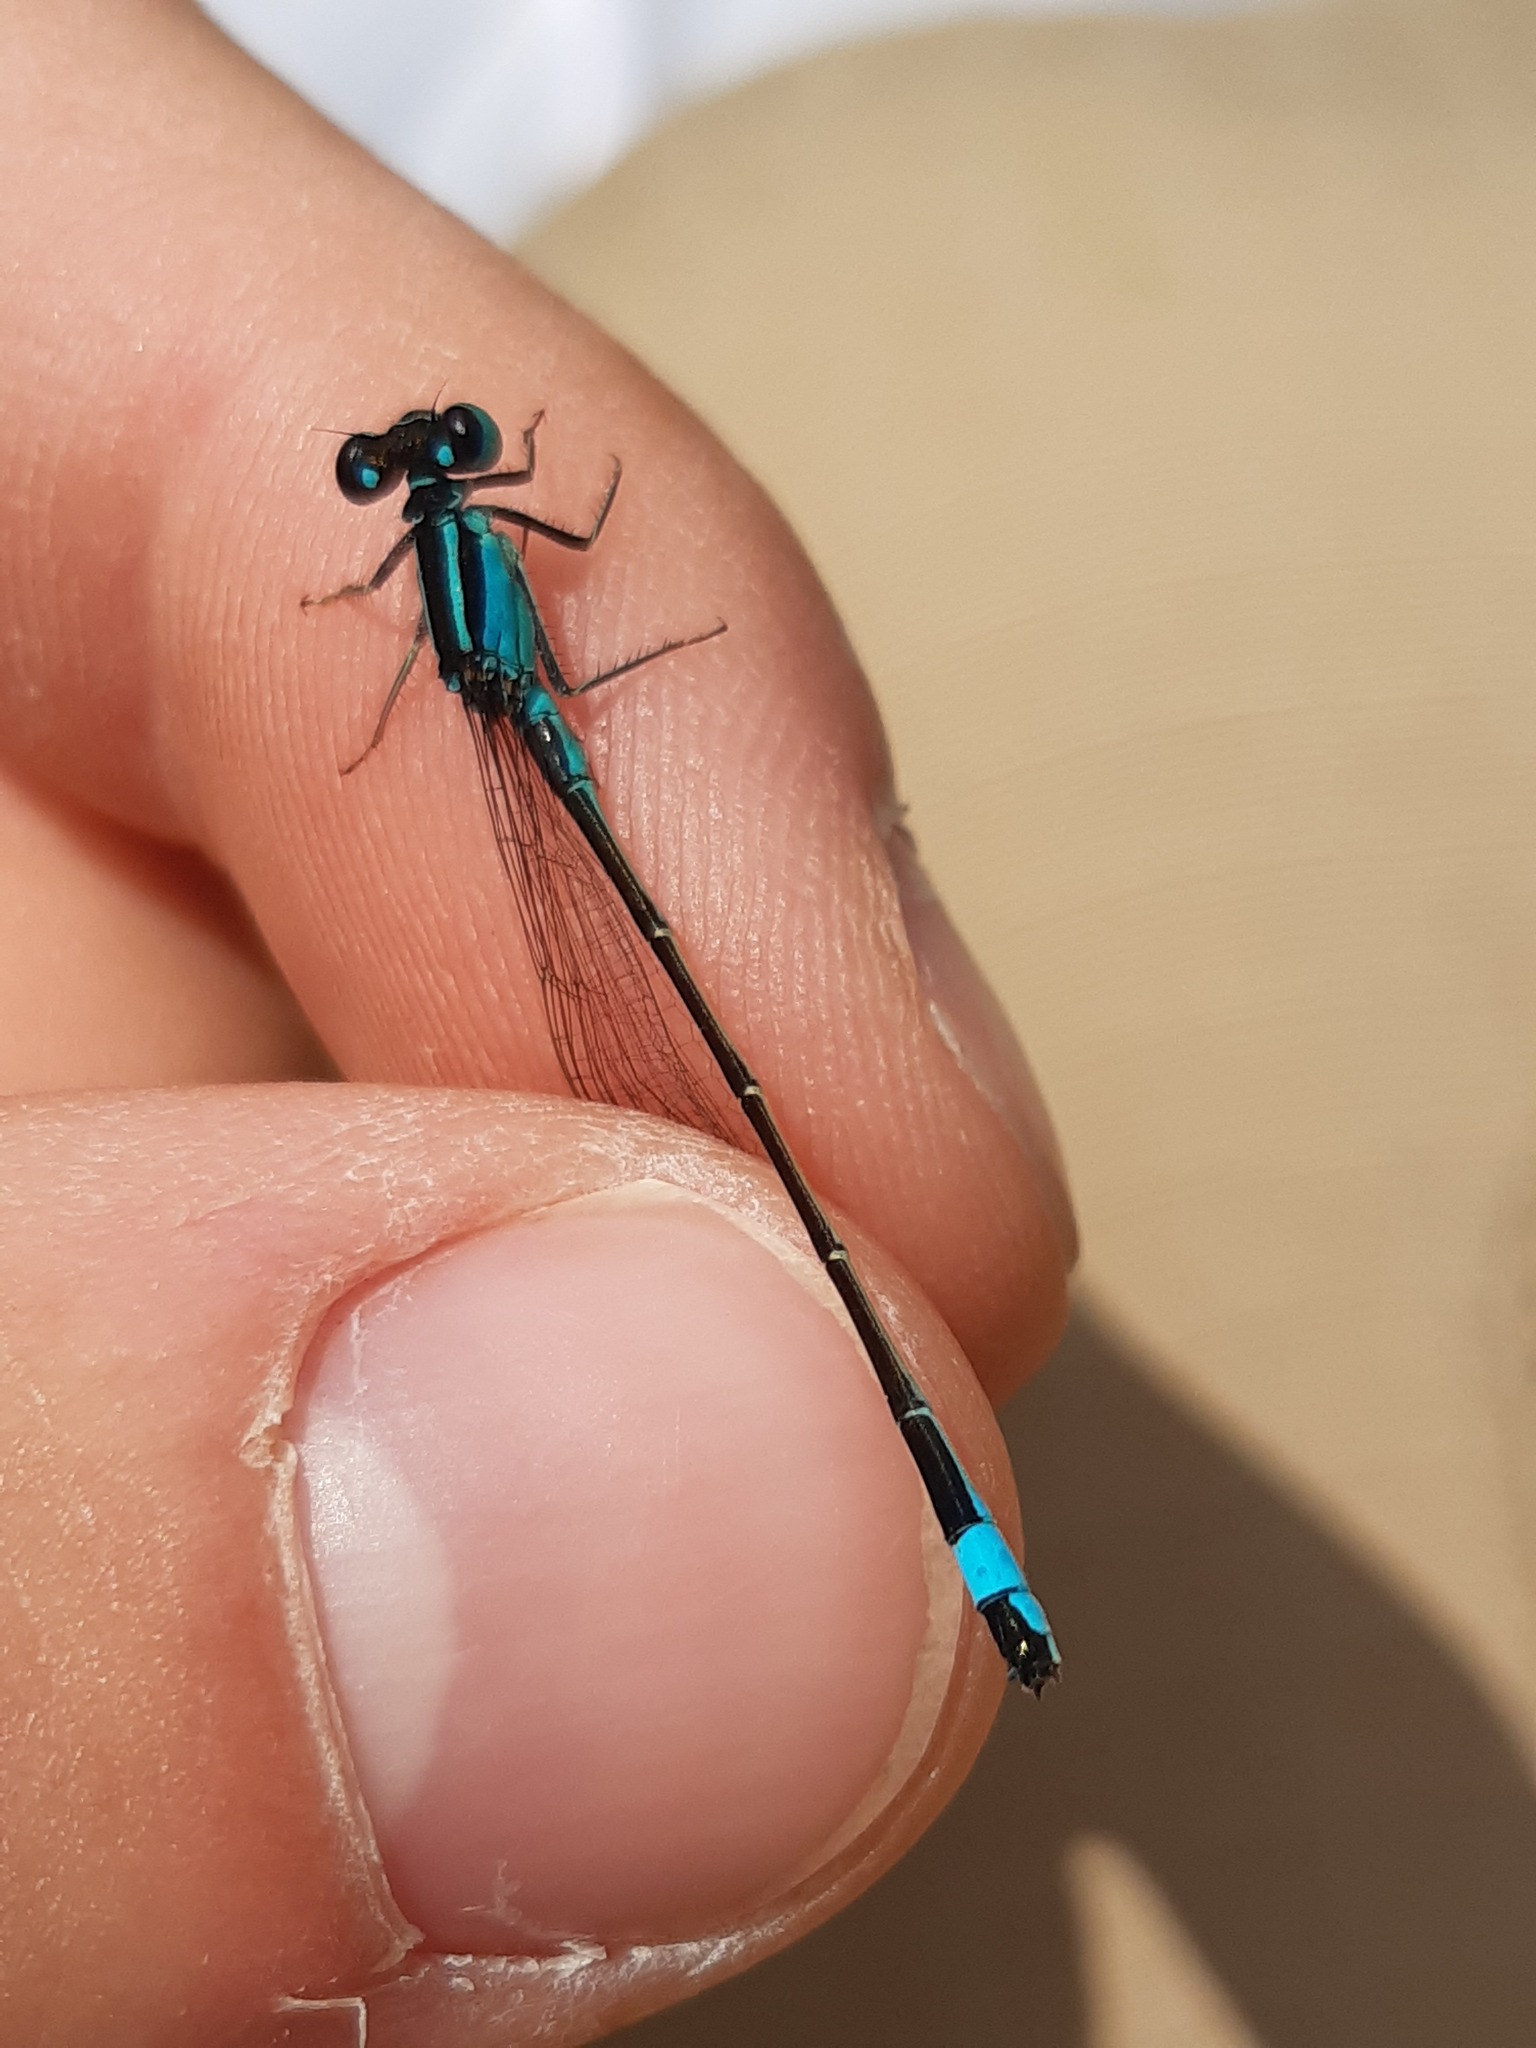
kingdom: Animalia
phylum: Arthropoda
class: Insecta
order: Odonata
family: Coenagrionidae
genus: Ischnura
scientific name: Ischnura elegans
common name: Blue-tailed damselfly
